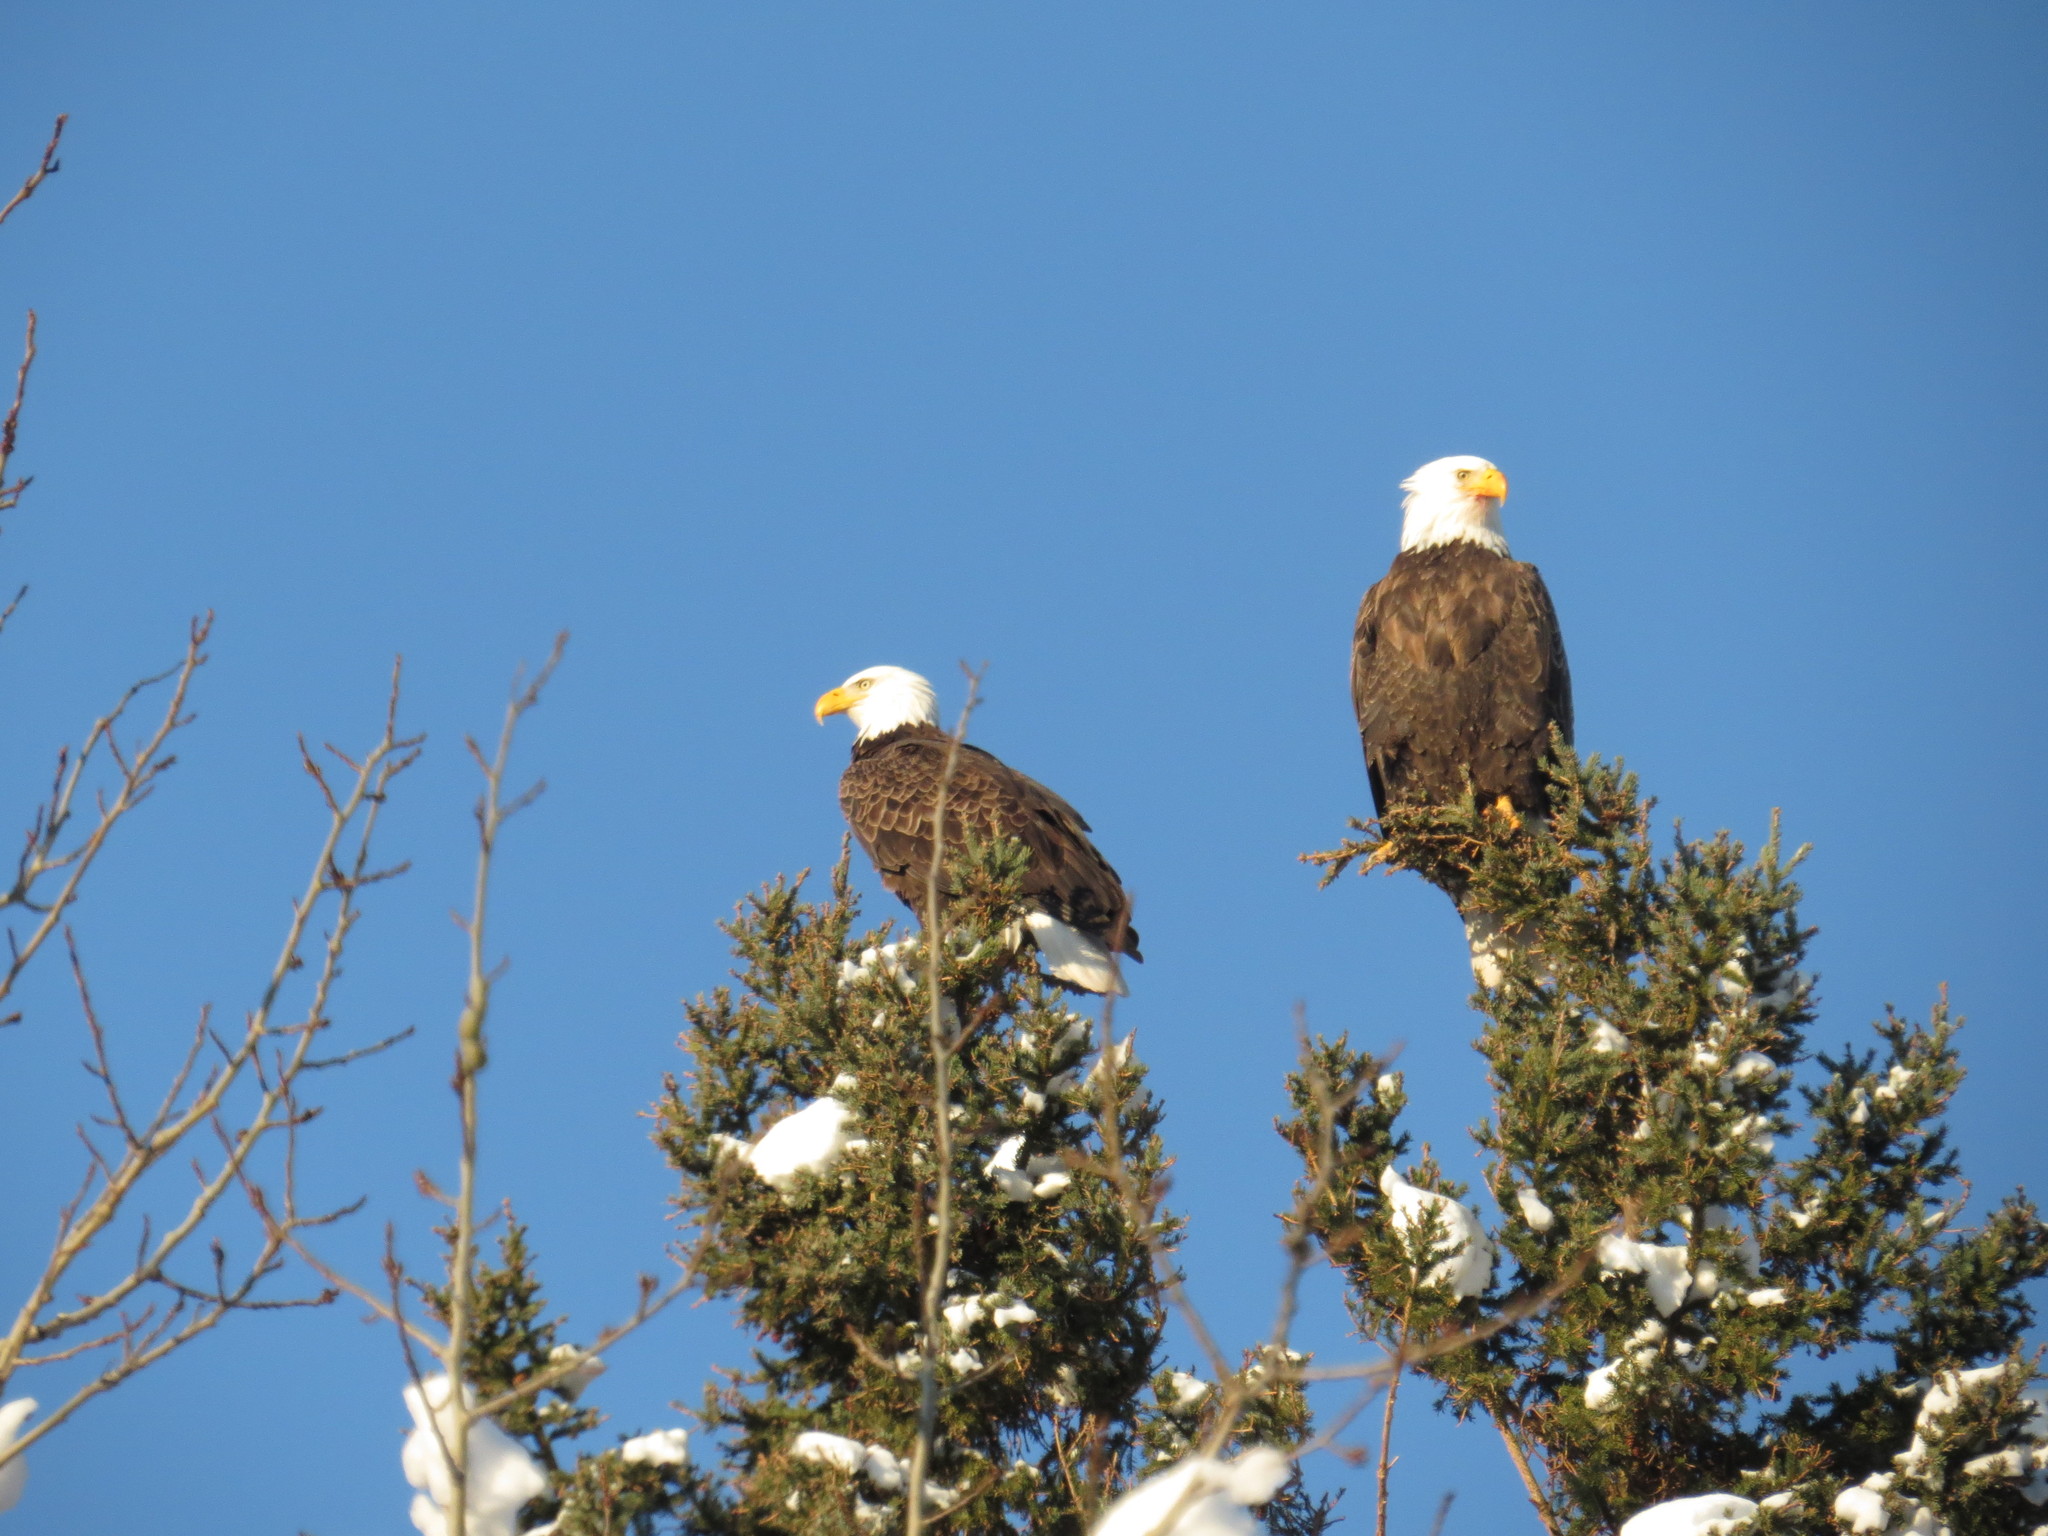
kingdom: Animalia
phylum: Chordata
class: Aves
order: Accipitriformes
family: Accipitridae
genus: Haliaeetus
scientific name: Haliaeetus leucocephalus
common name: Bald eagle
